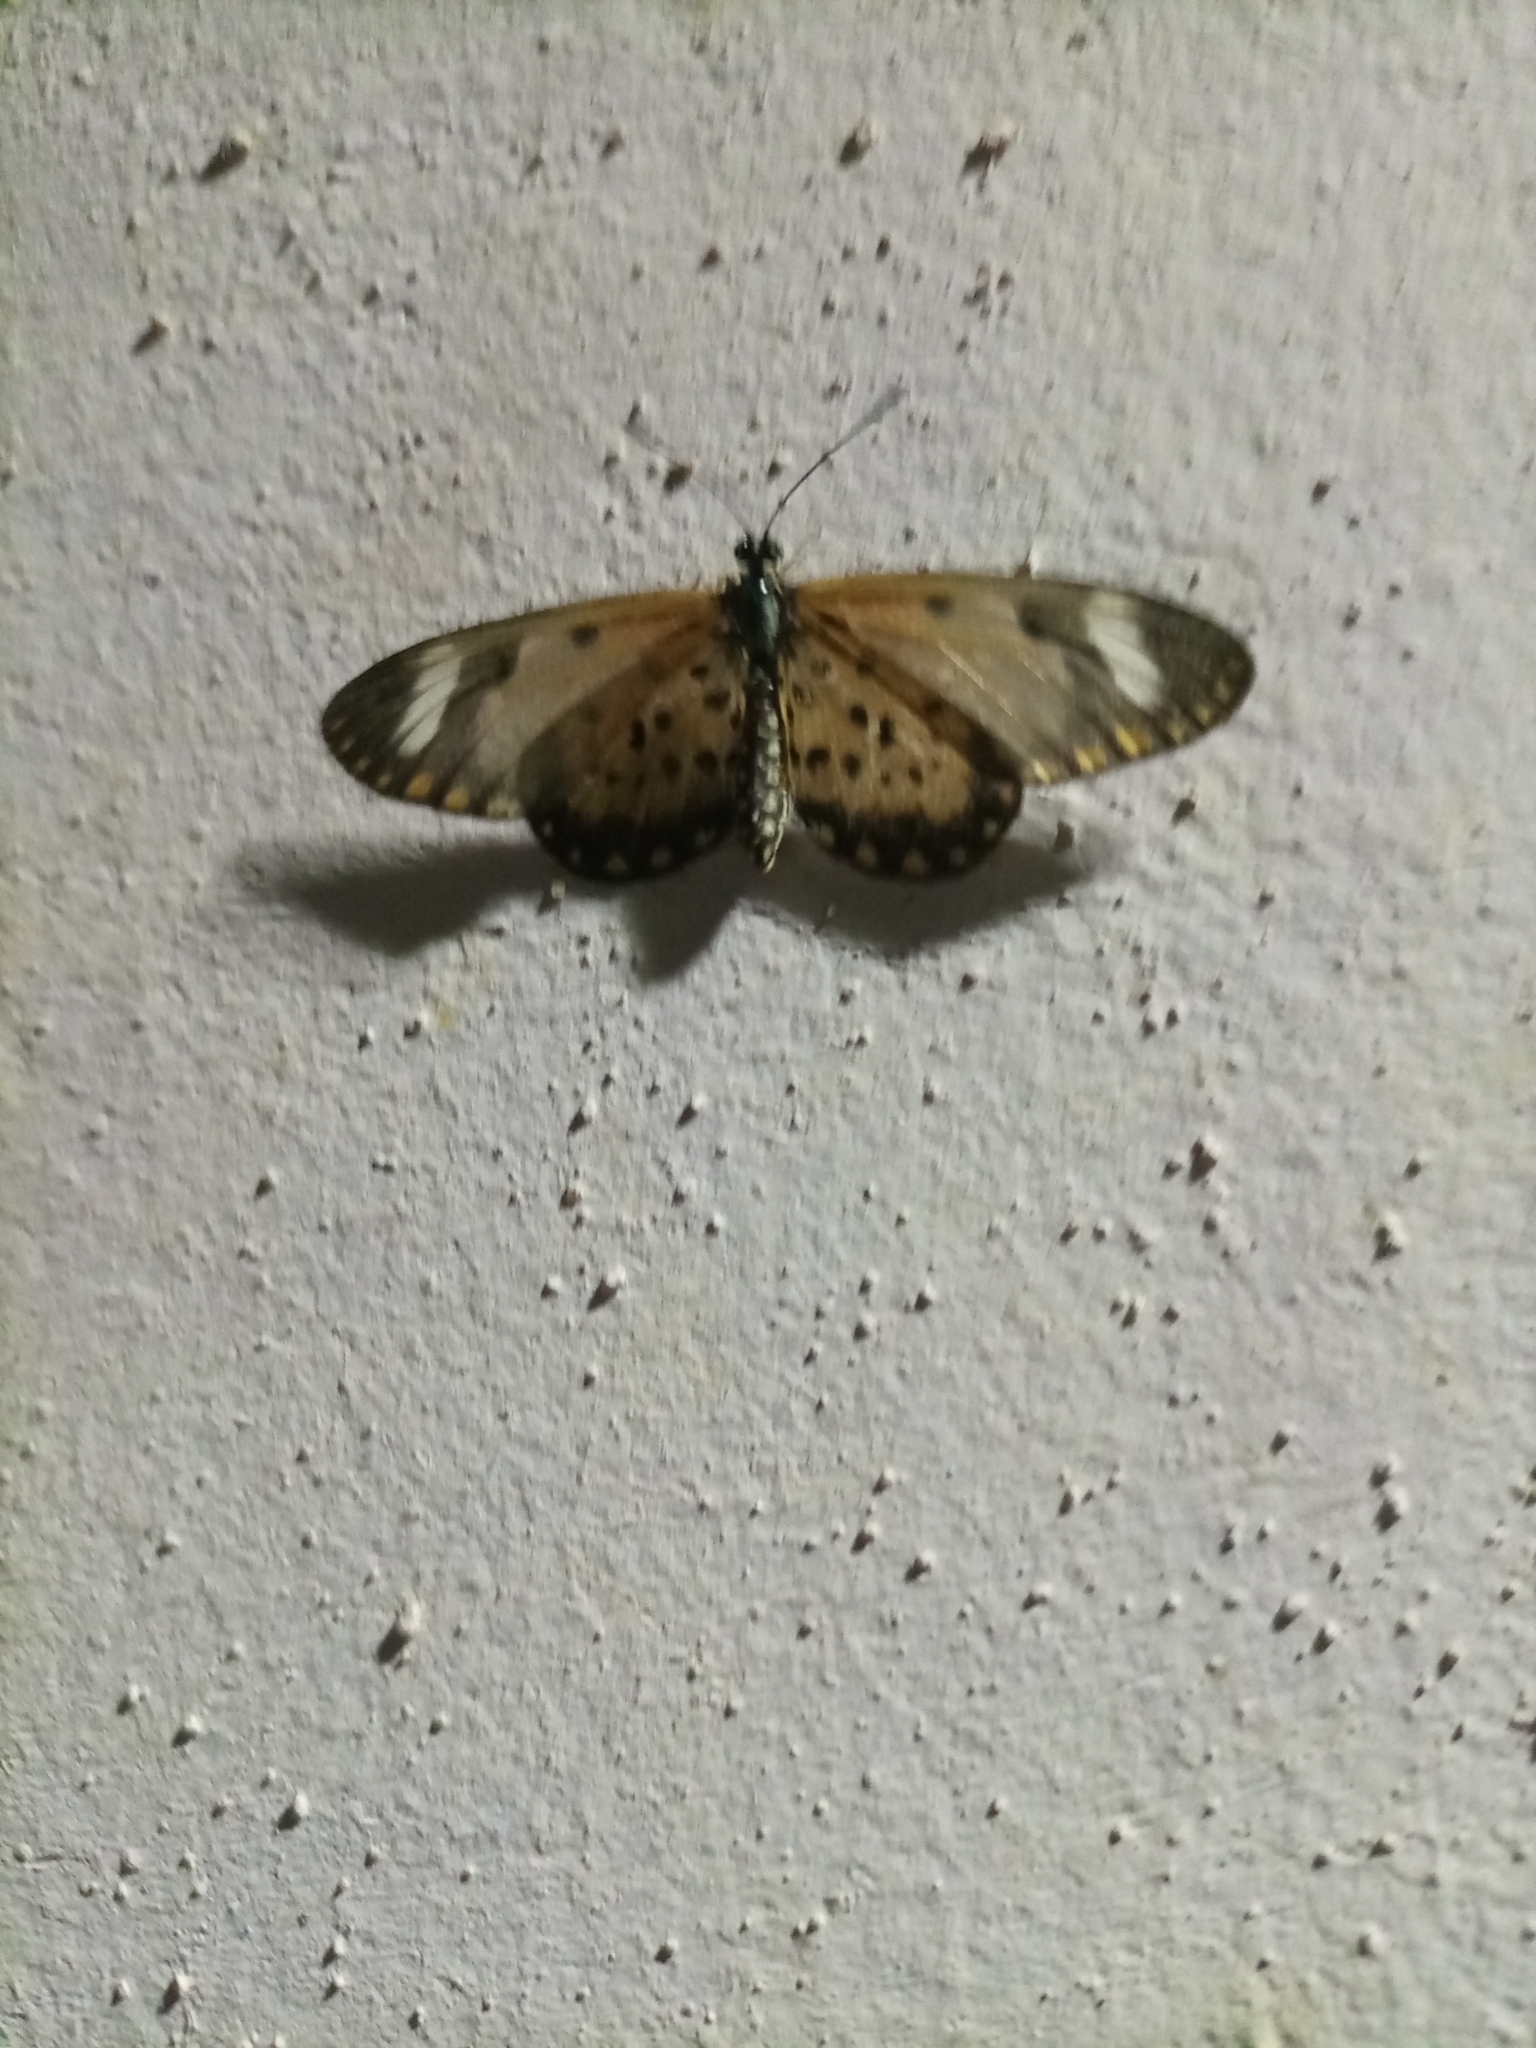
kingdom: Animalia
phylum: Arthropoda
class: Insecta
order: Lepidoptera
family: Nymphalidae
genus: Acraea
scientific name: Acraea Telchinia serena
